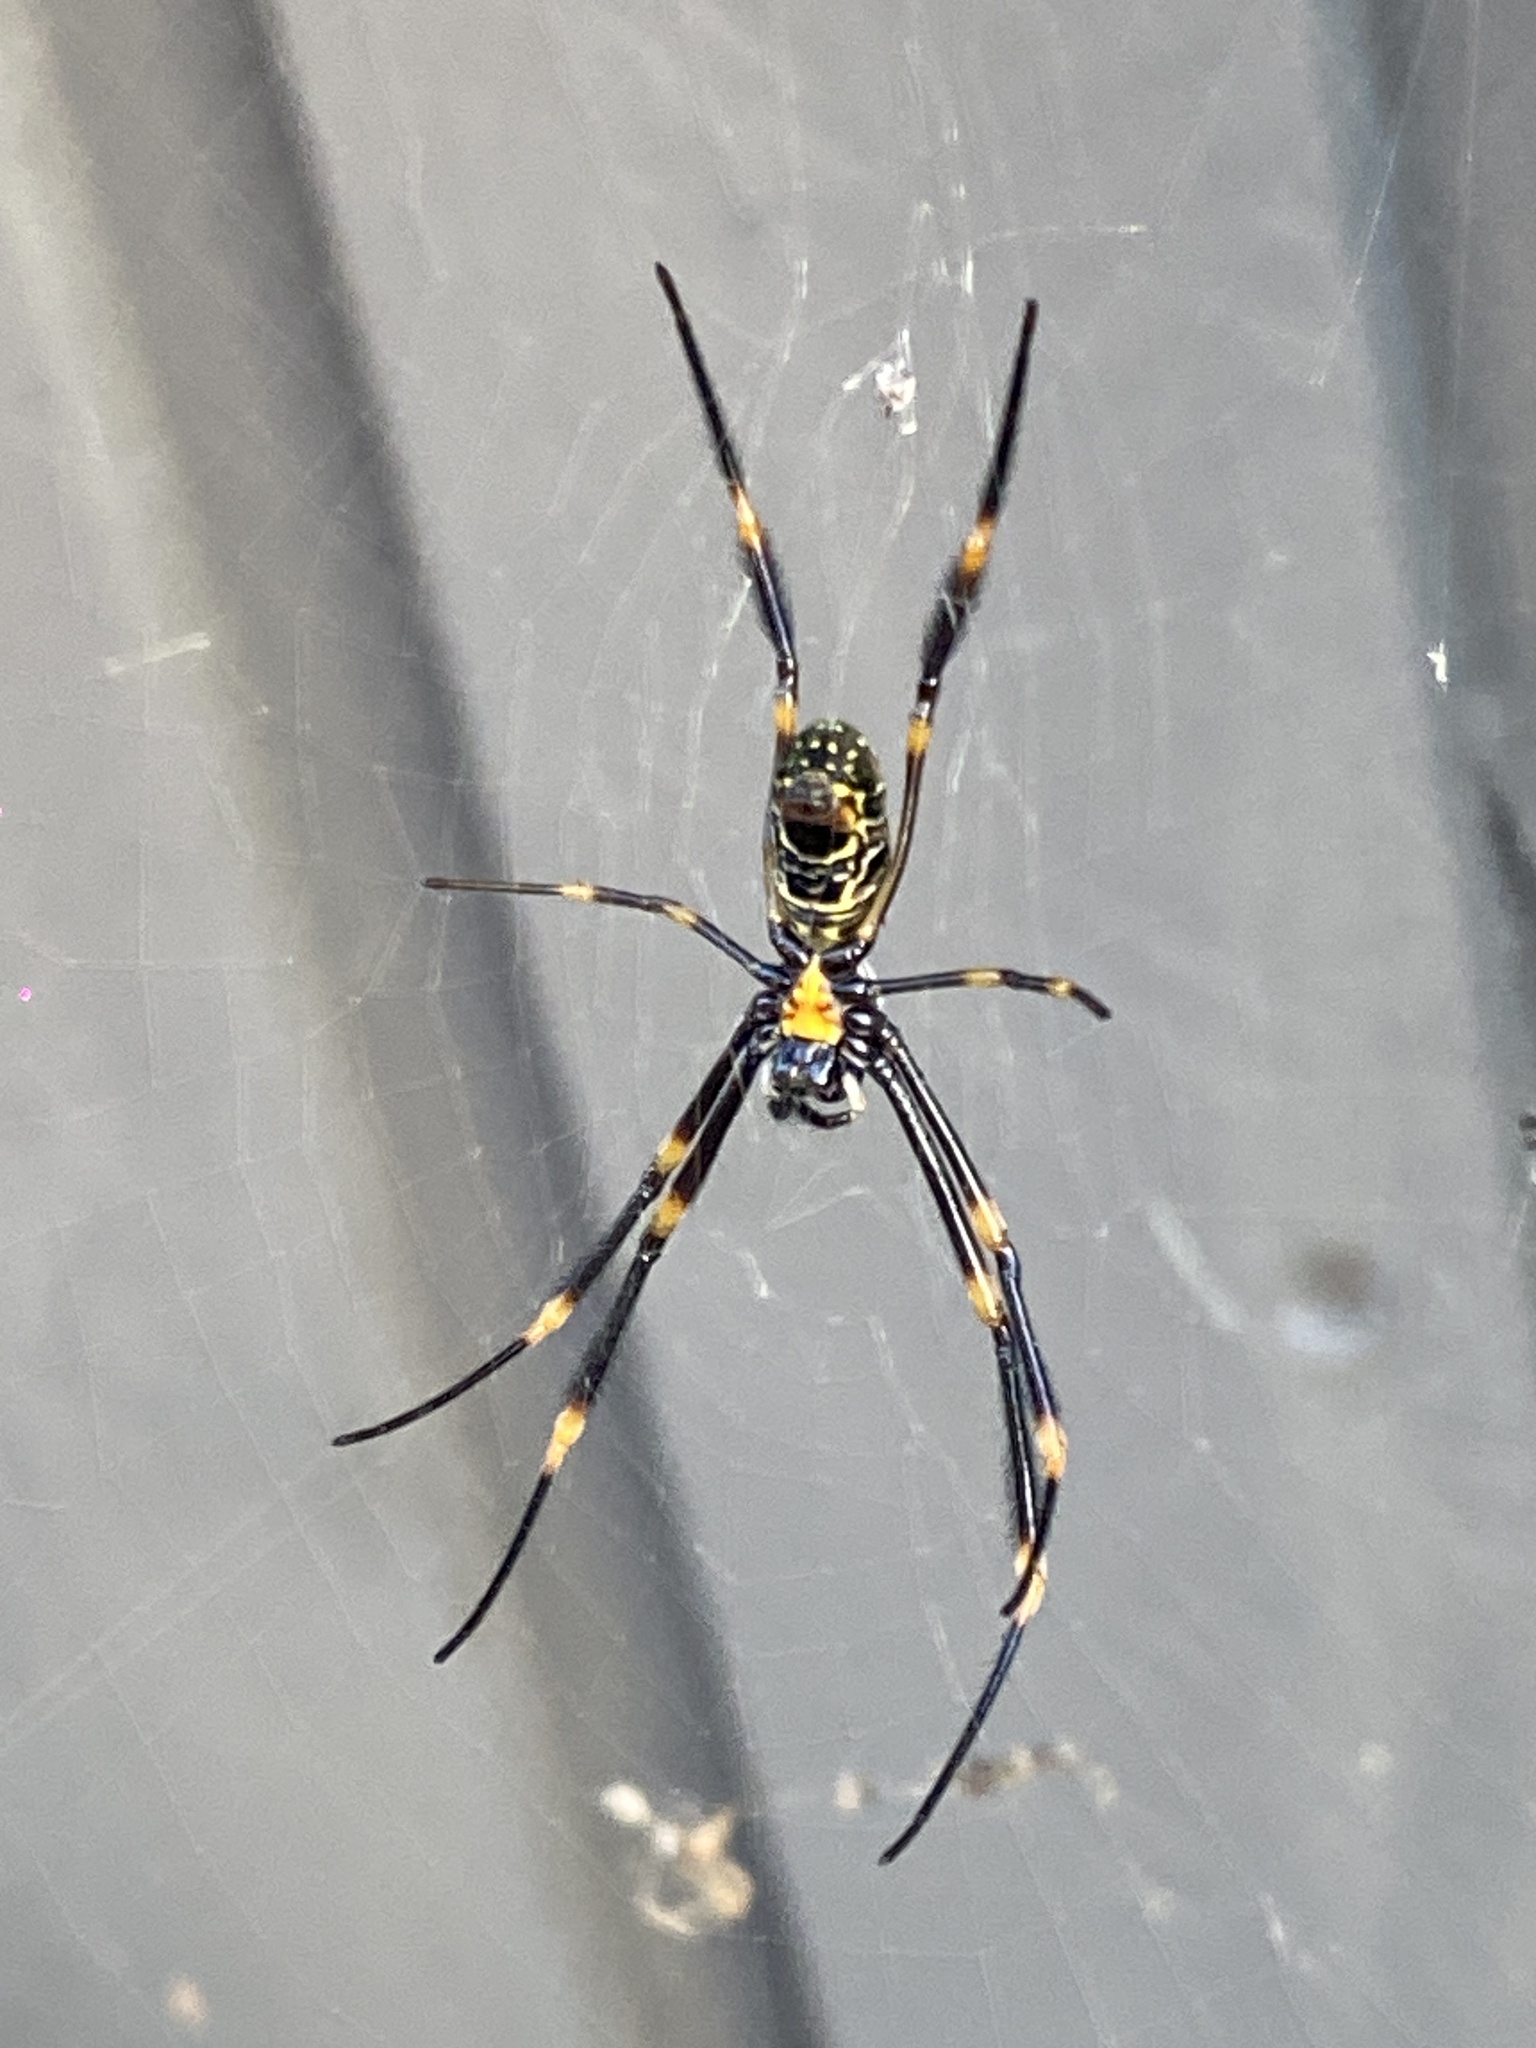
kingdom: Animalia
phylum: Arthropoda
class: Arachnida
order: Araneae
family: Araneidae
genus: Trichonephila
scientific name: Trichonephila plumipes
